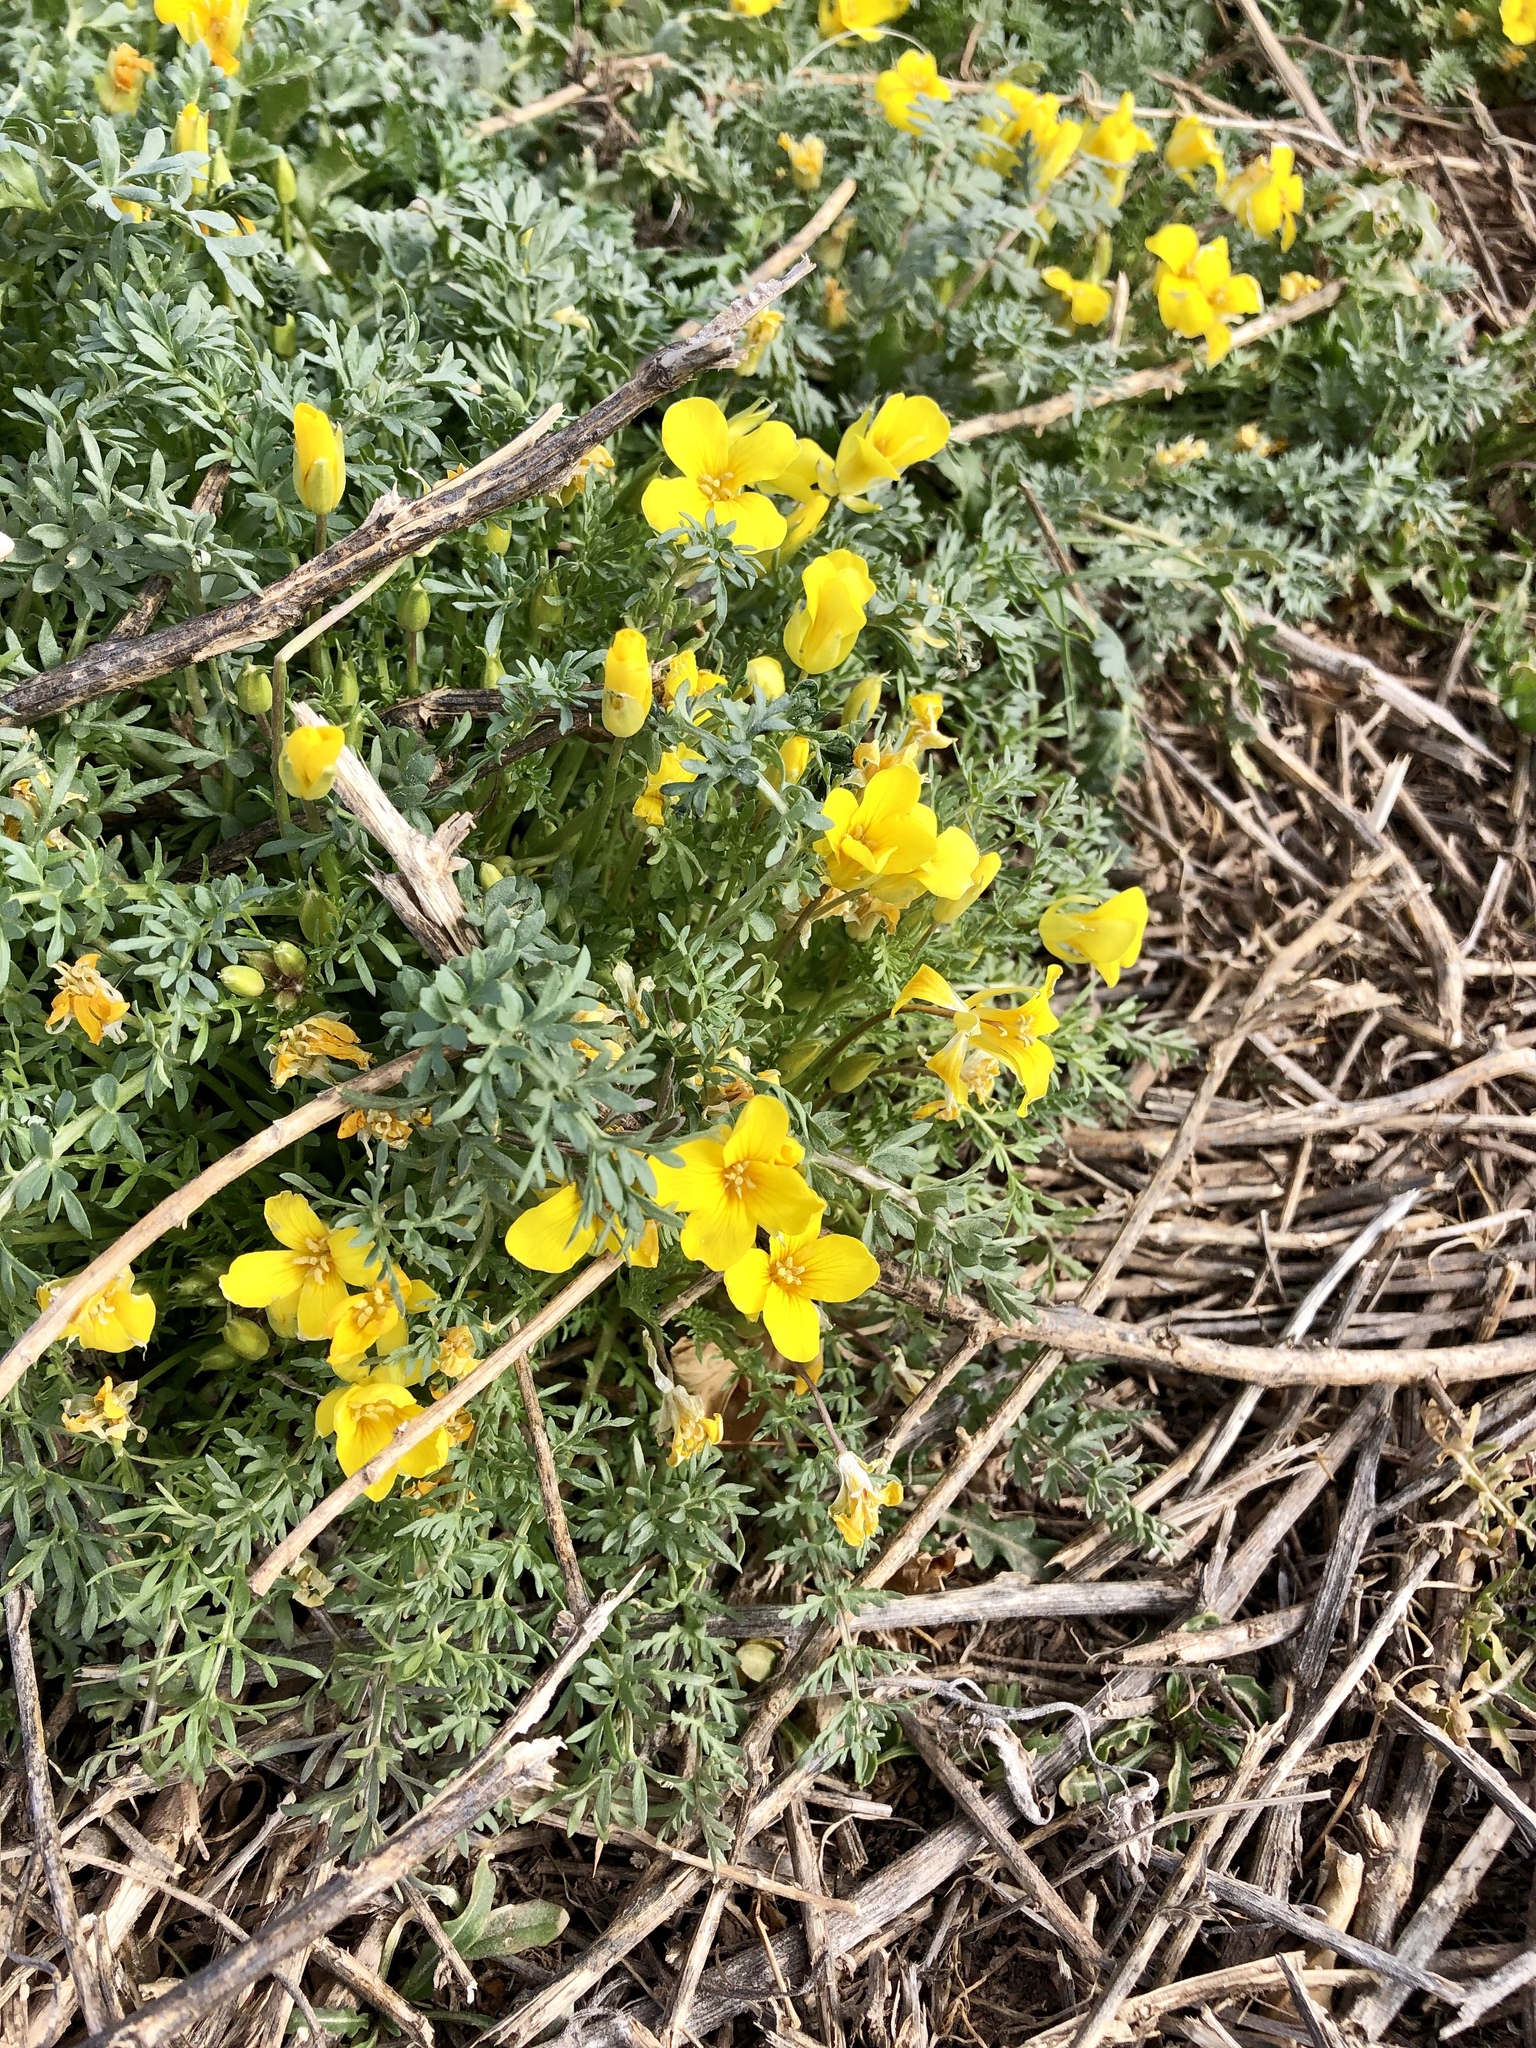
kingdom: Plantae
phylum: Tracheophyta
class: Magnoliopsida
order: Brassicales
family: Brassicaceae
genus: Selenia
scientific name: Selenia dissecta
